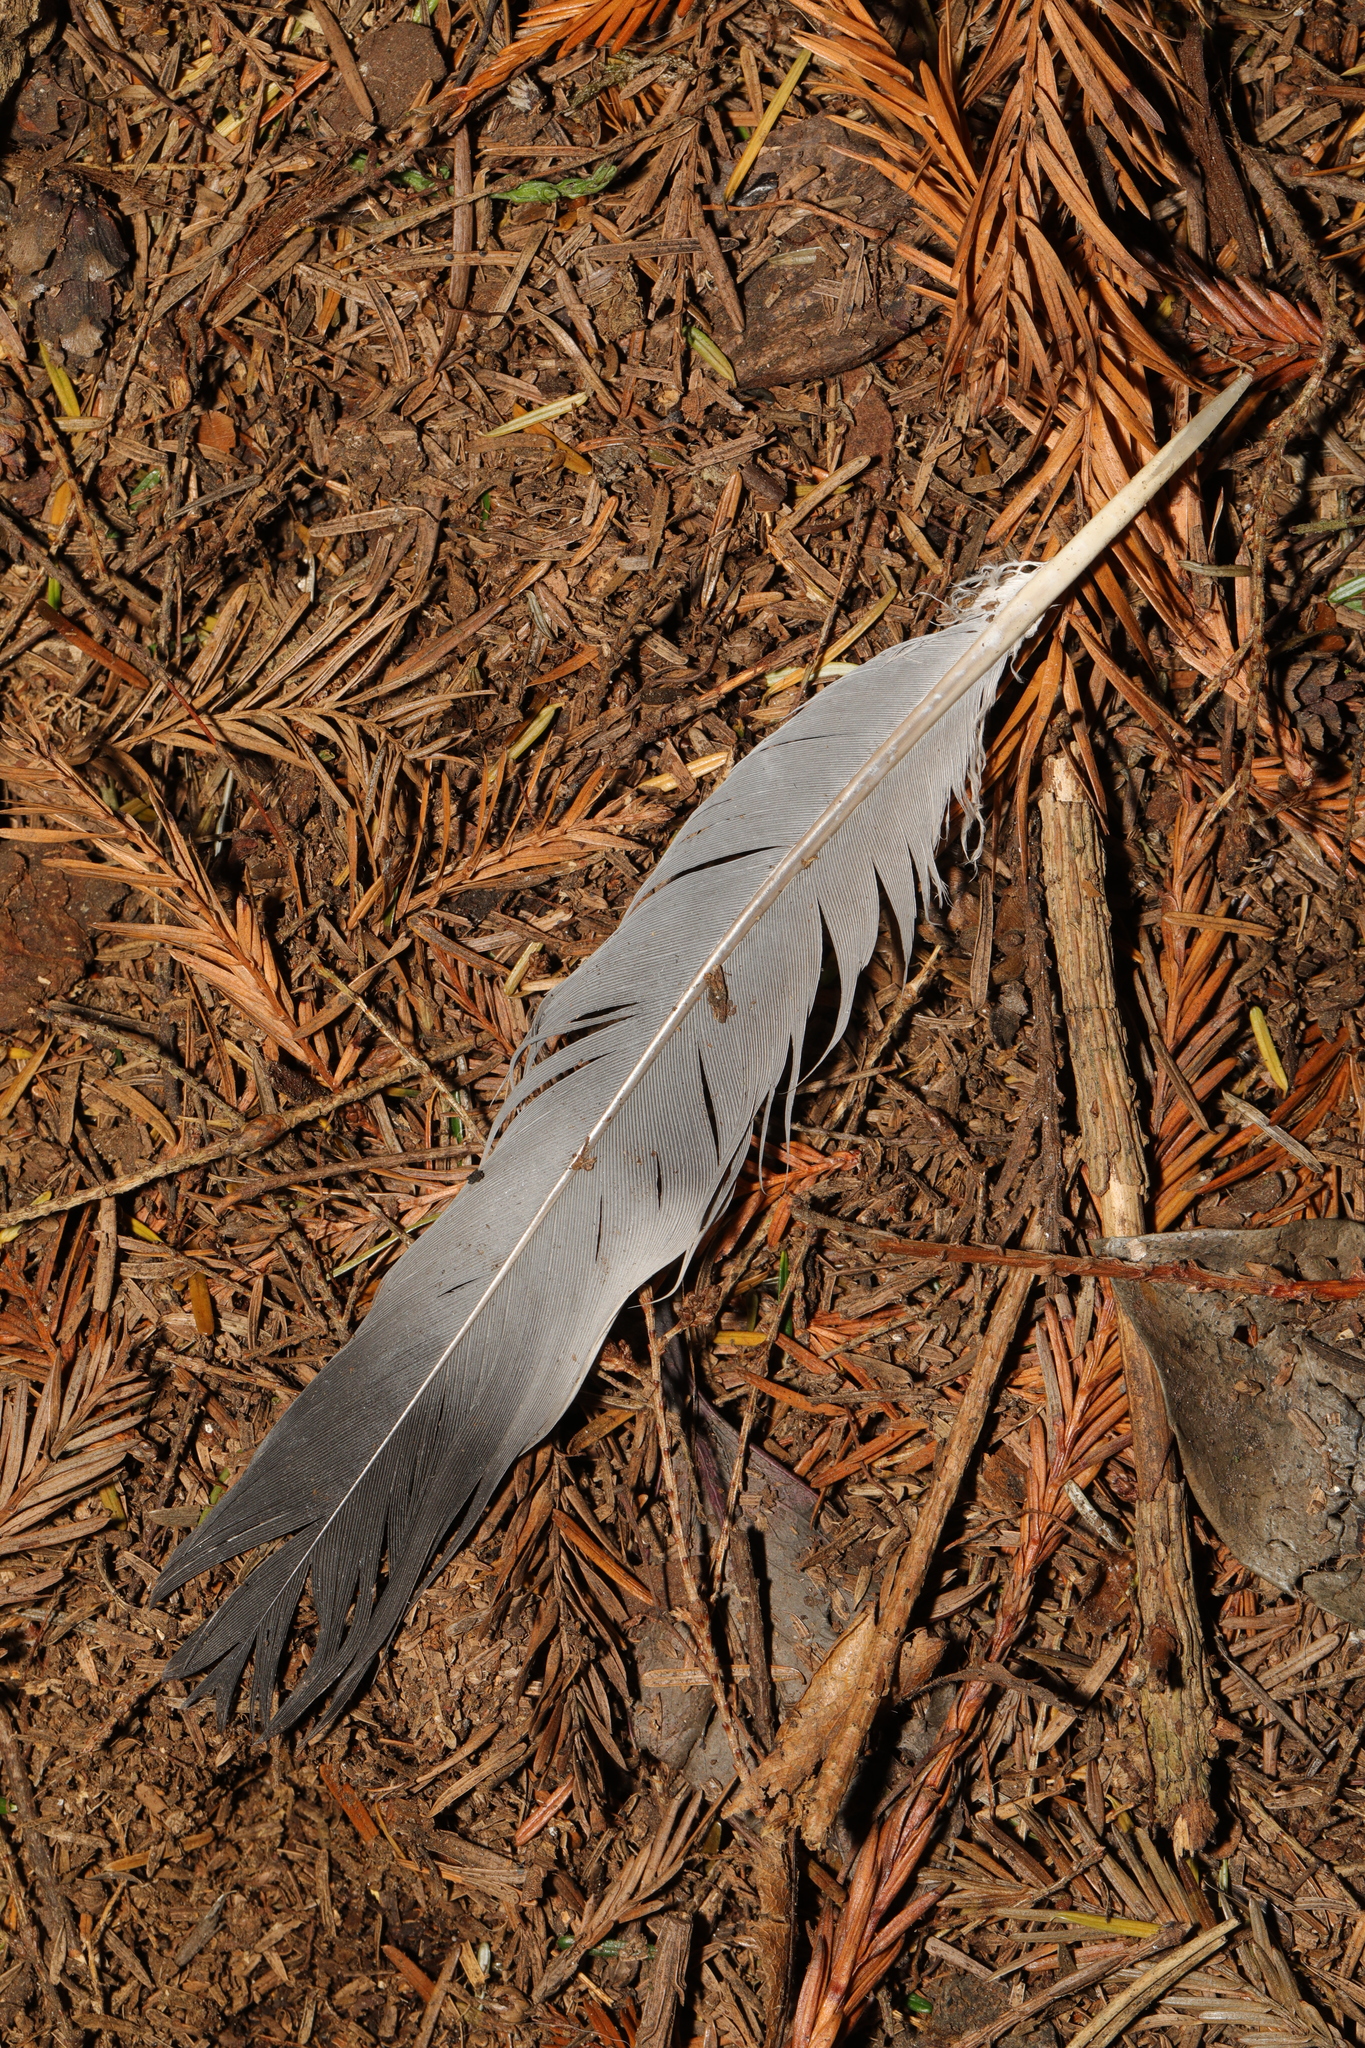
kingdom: Animalia
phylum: Chordata
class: Aves
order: Columbiformes
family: Columbidae
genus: Columba
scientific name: Columba palumbus
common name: Common wood pigeon
